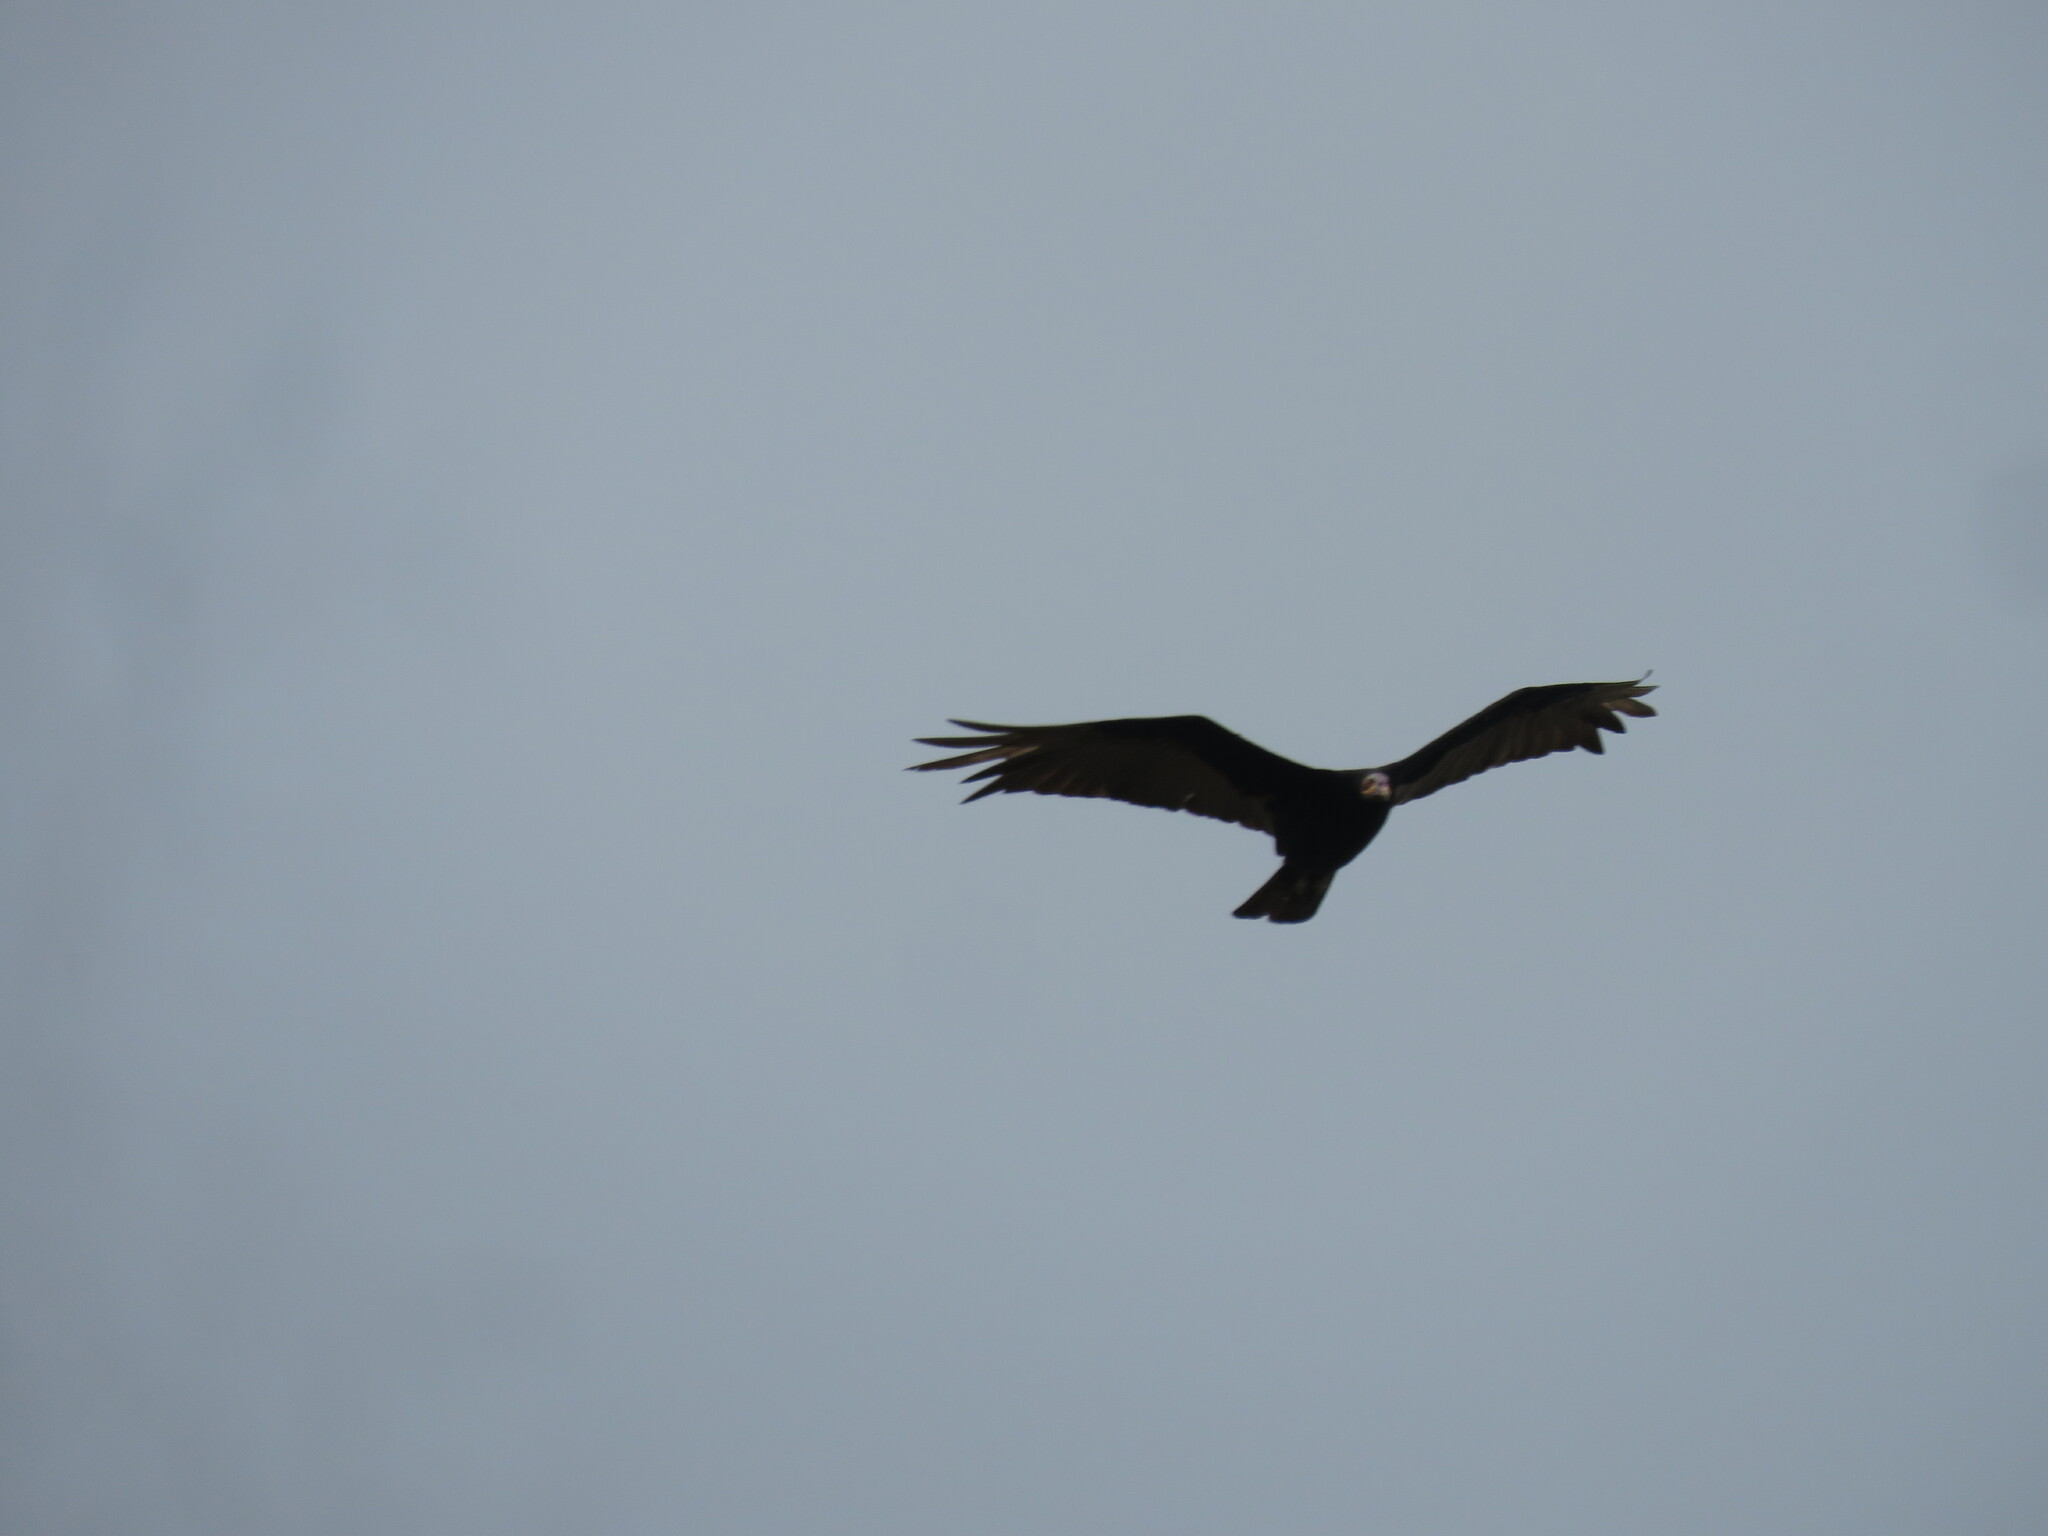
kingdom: Animalia
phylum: Chordata
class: Aves
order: Accipitriformes
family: Cathartidae
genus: Cathartes
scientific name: Cathartes burrovianus
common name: Lesser yellow-headed vulture
